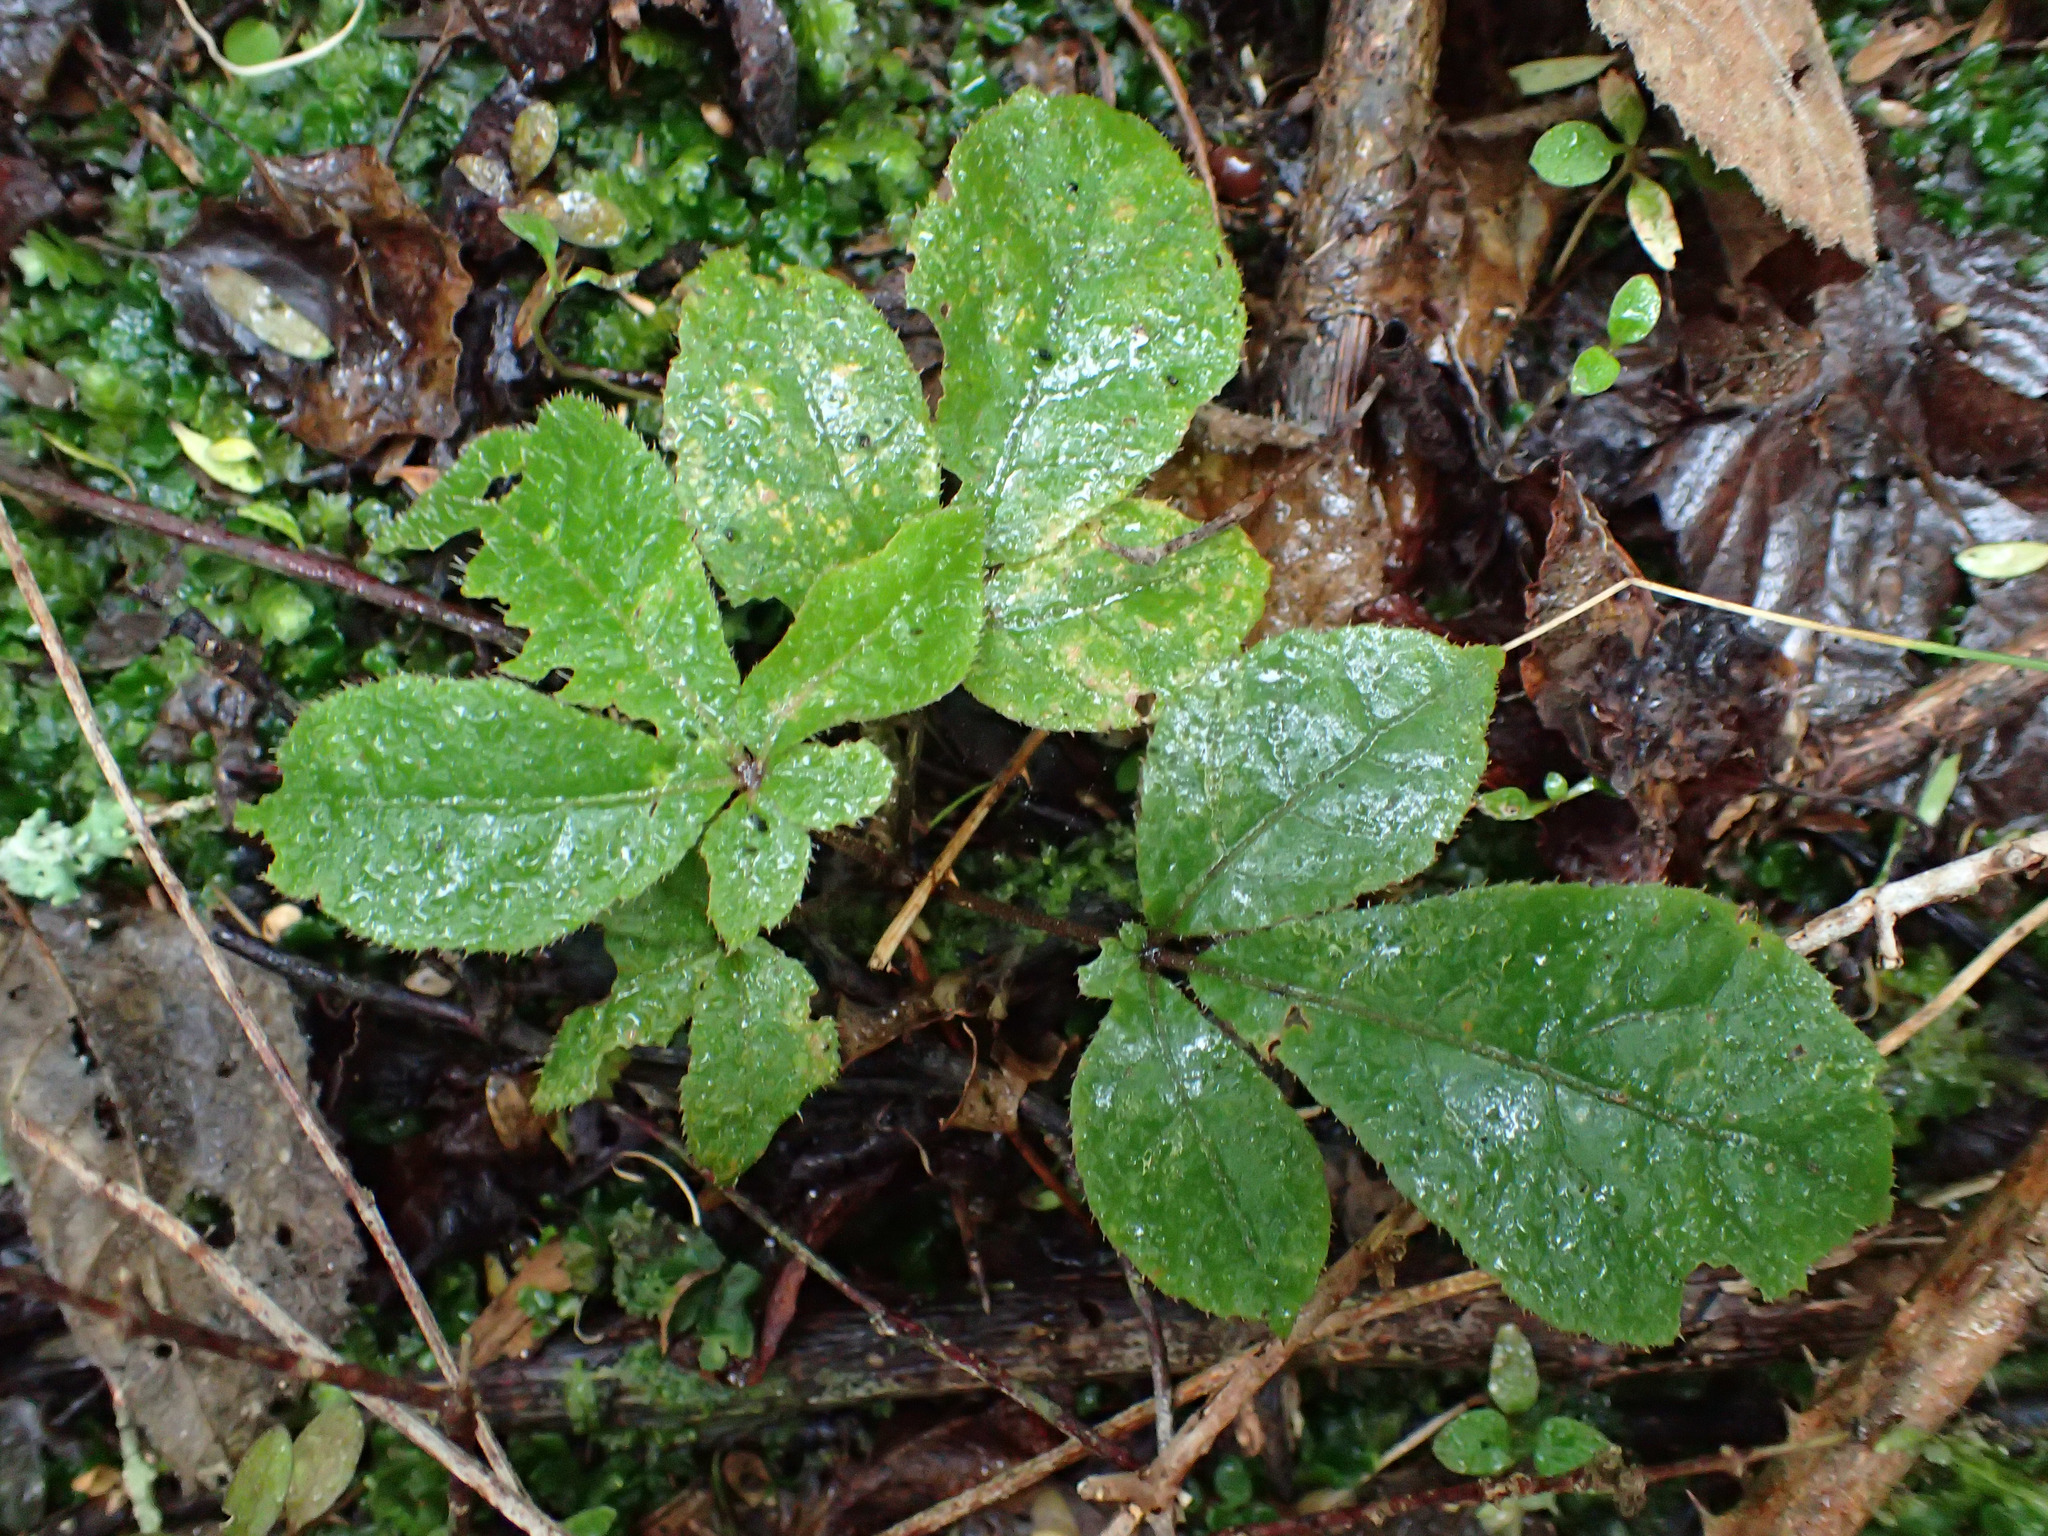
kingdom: Plantae
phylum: Tracheophyta
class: Magnoliopsida
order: Apiales
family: Araliaceae
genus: Schefflera
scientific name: Schefflera digitata
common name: Pate
